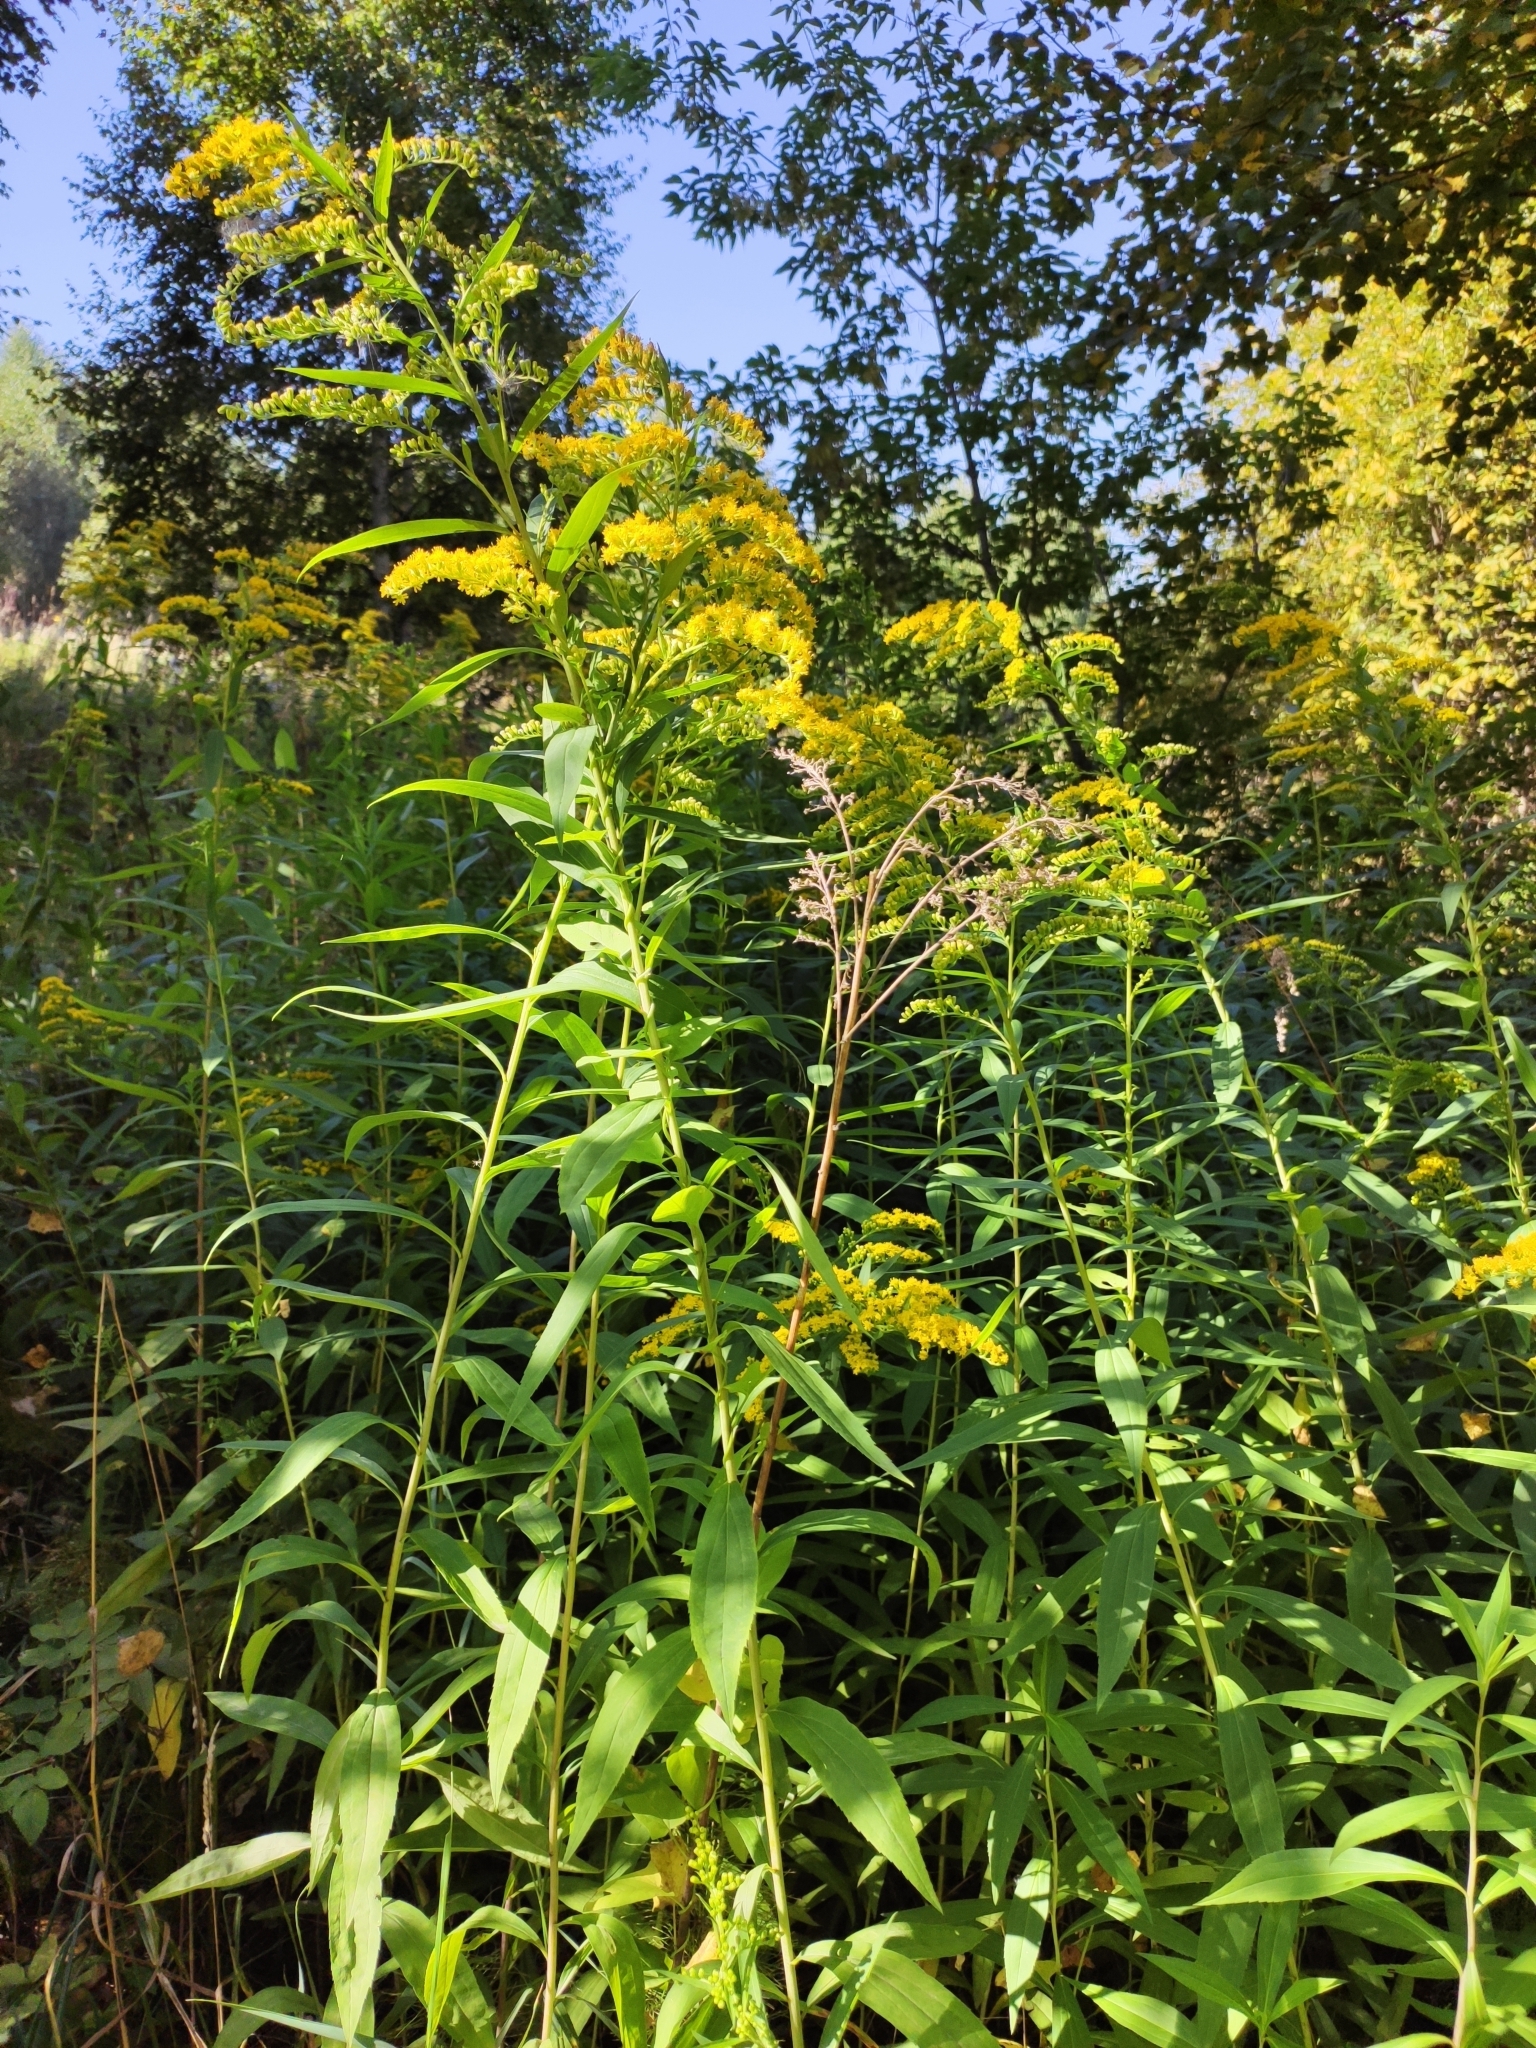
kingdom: Plantae
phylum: Tracheophyta
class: Magnoliopsida
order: Asterales
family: Asteraceae
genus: Solidago
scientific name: Solidago gigantea
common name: Giant goldenrod
